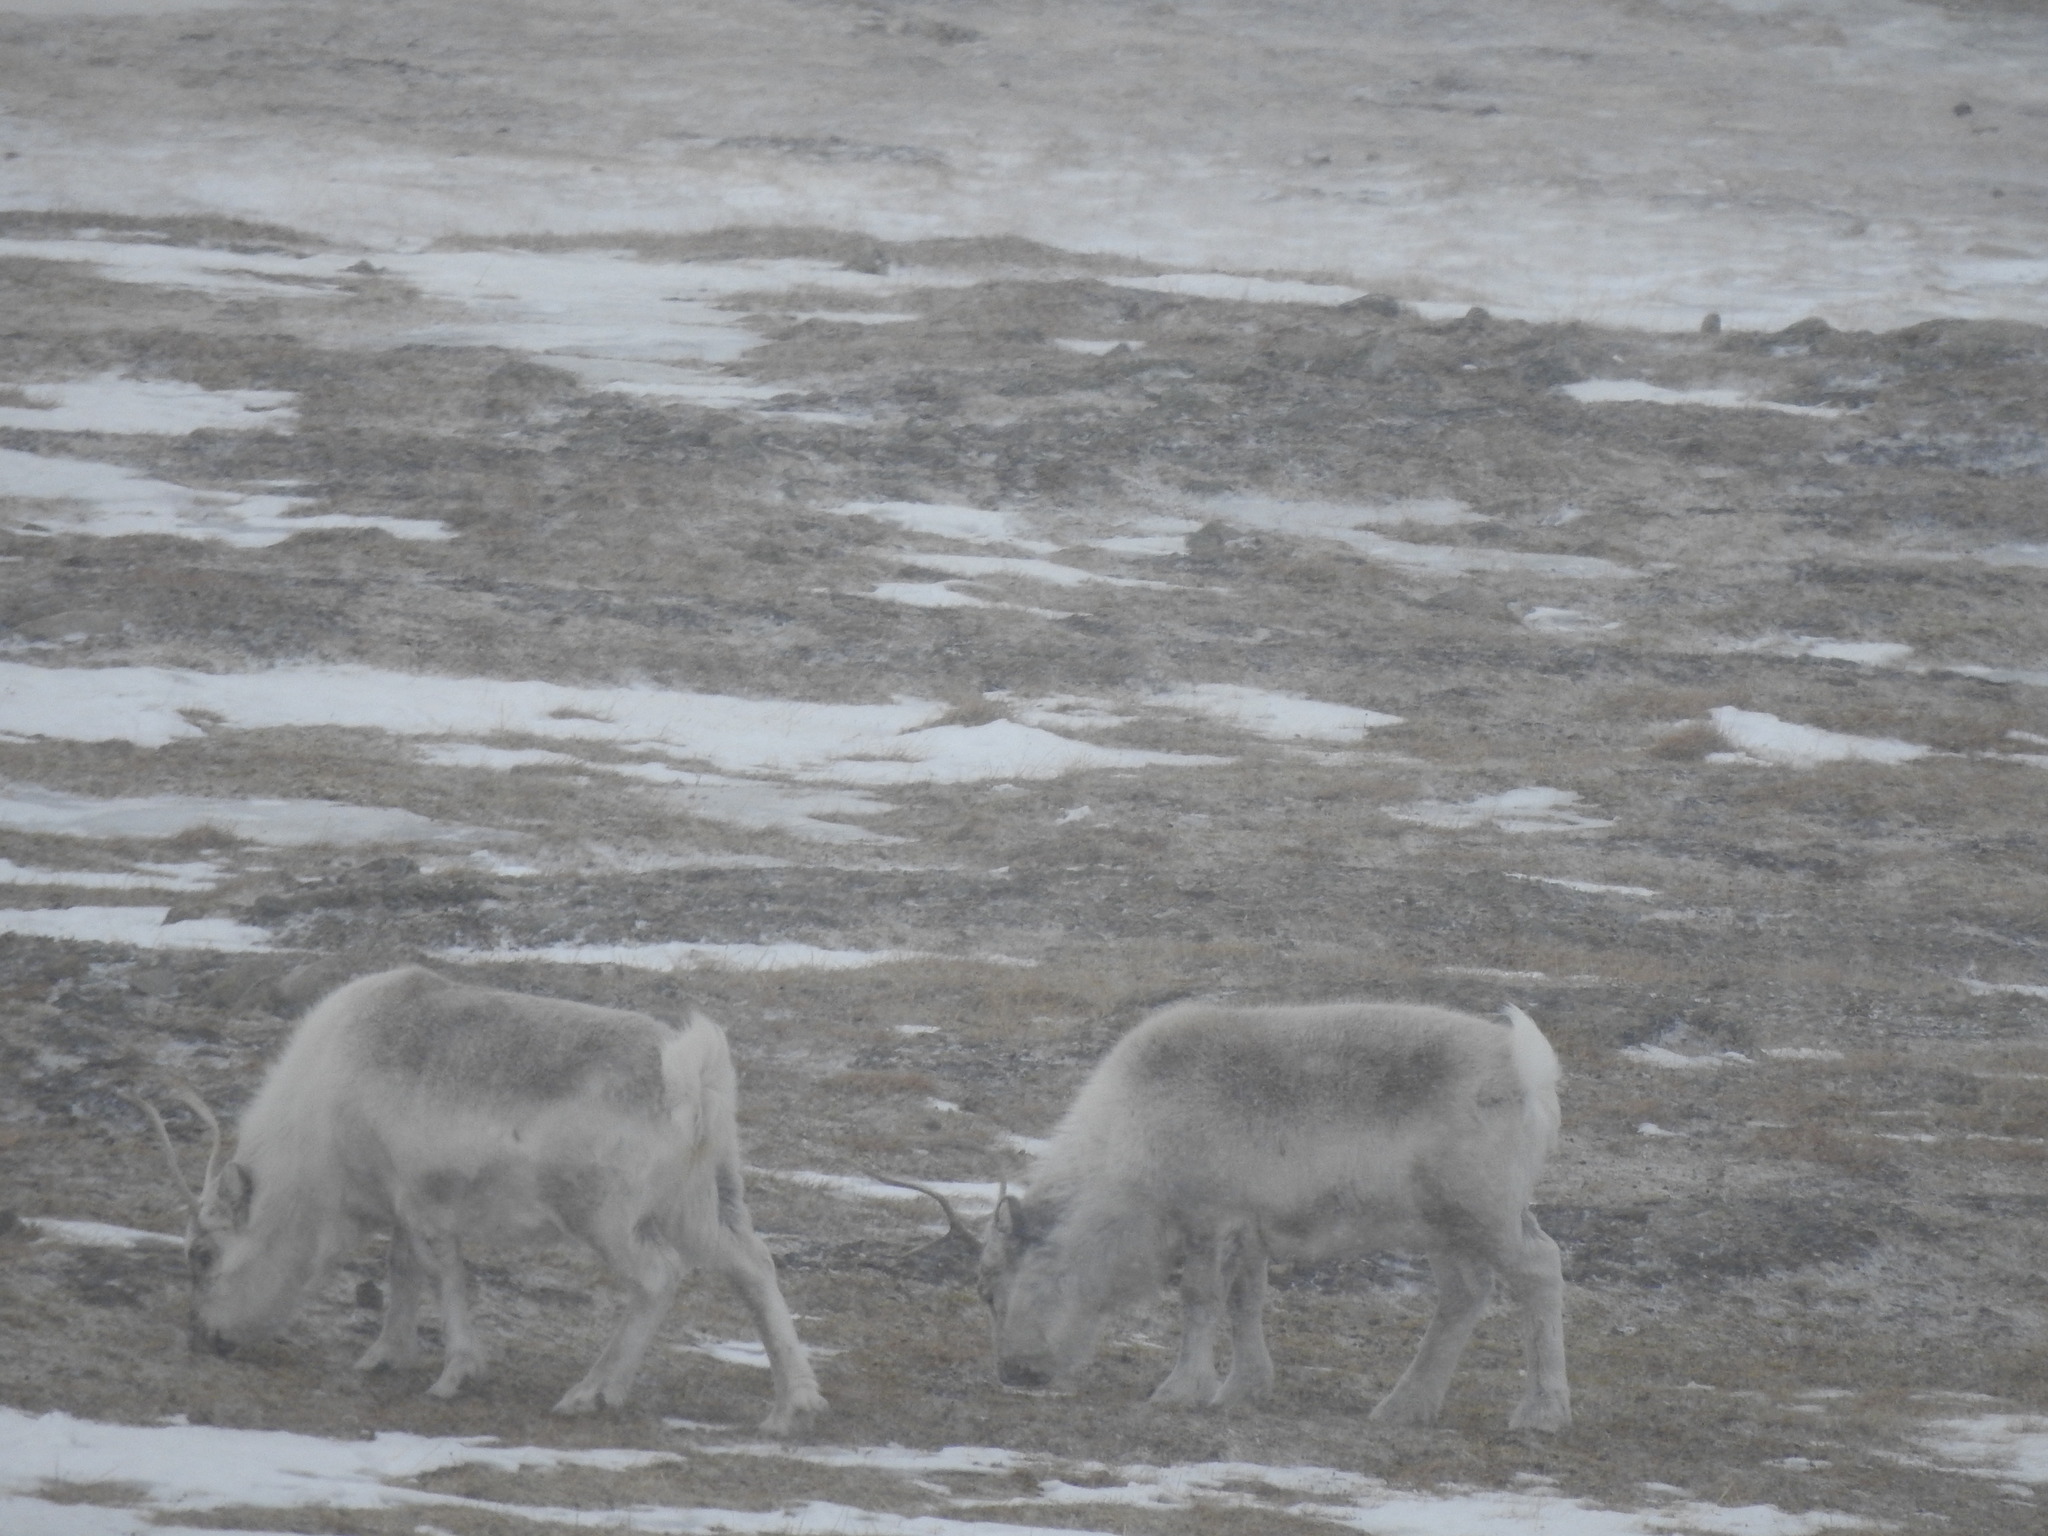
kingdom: Animalia
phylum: Chordata
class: Mammalia
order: Artiodactyla
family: Cervidae
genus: Rangifer
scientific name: Rangifer tarandus
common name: Reindeer
